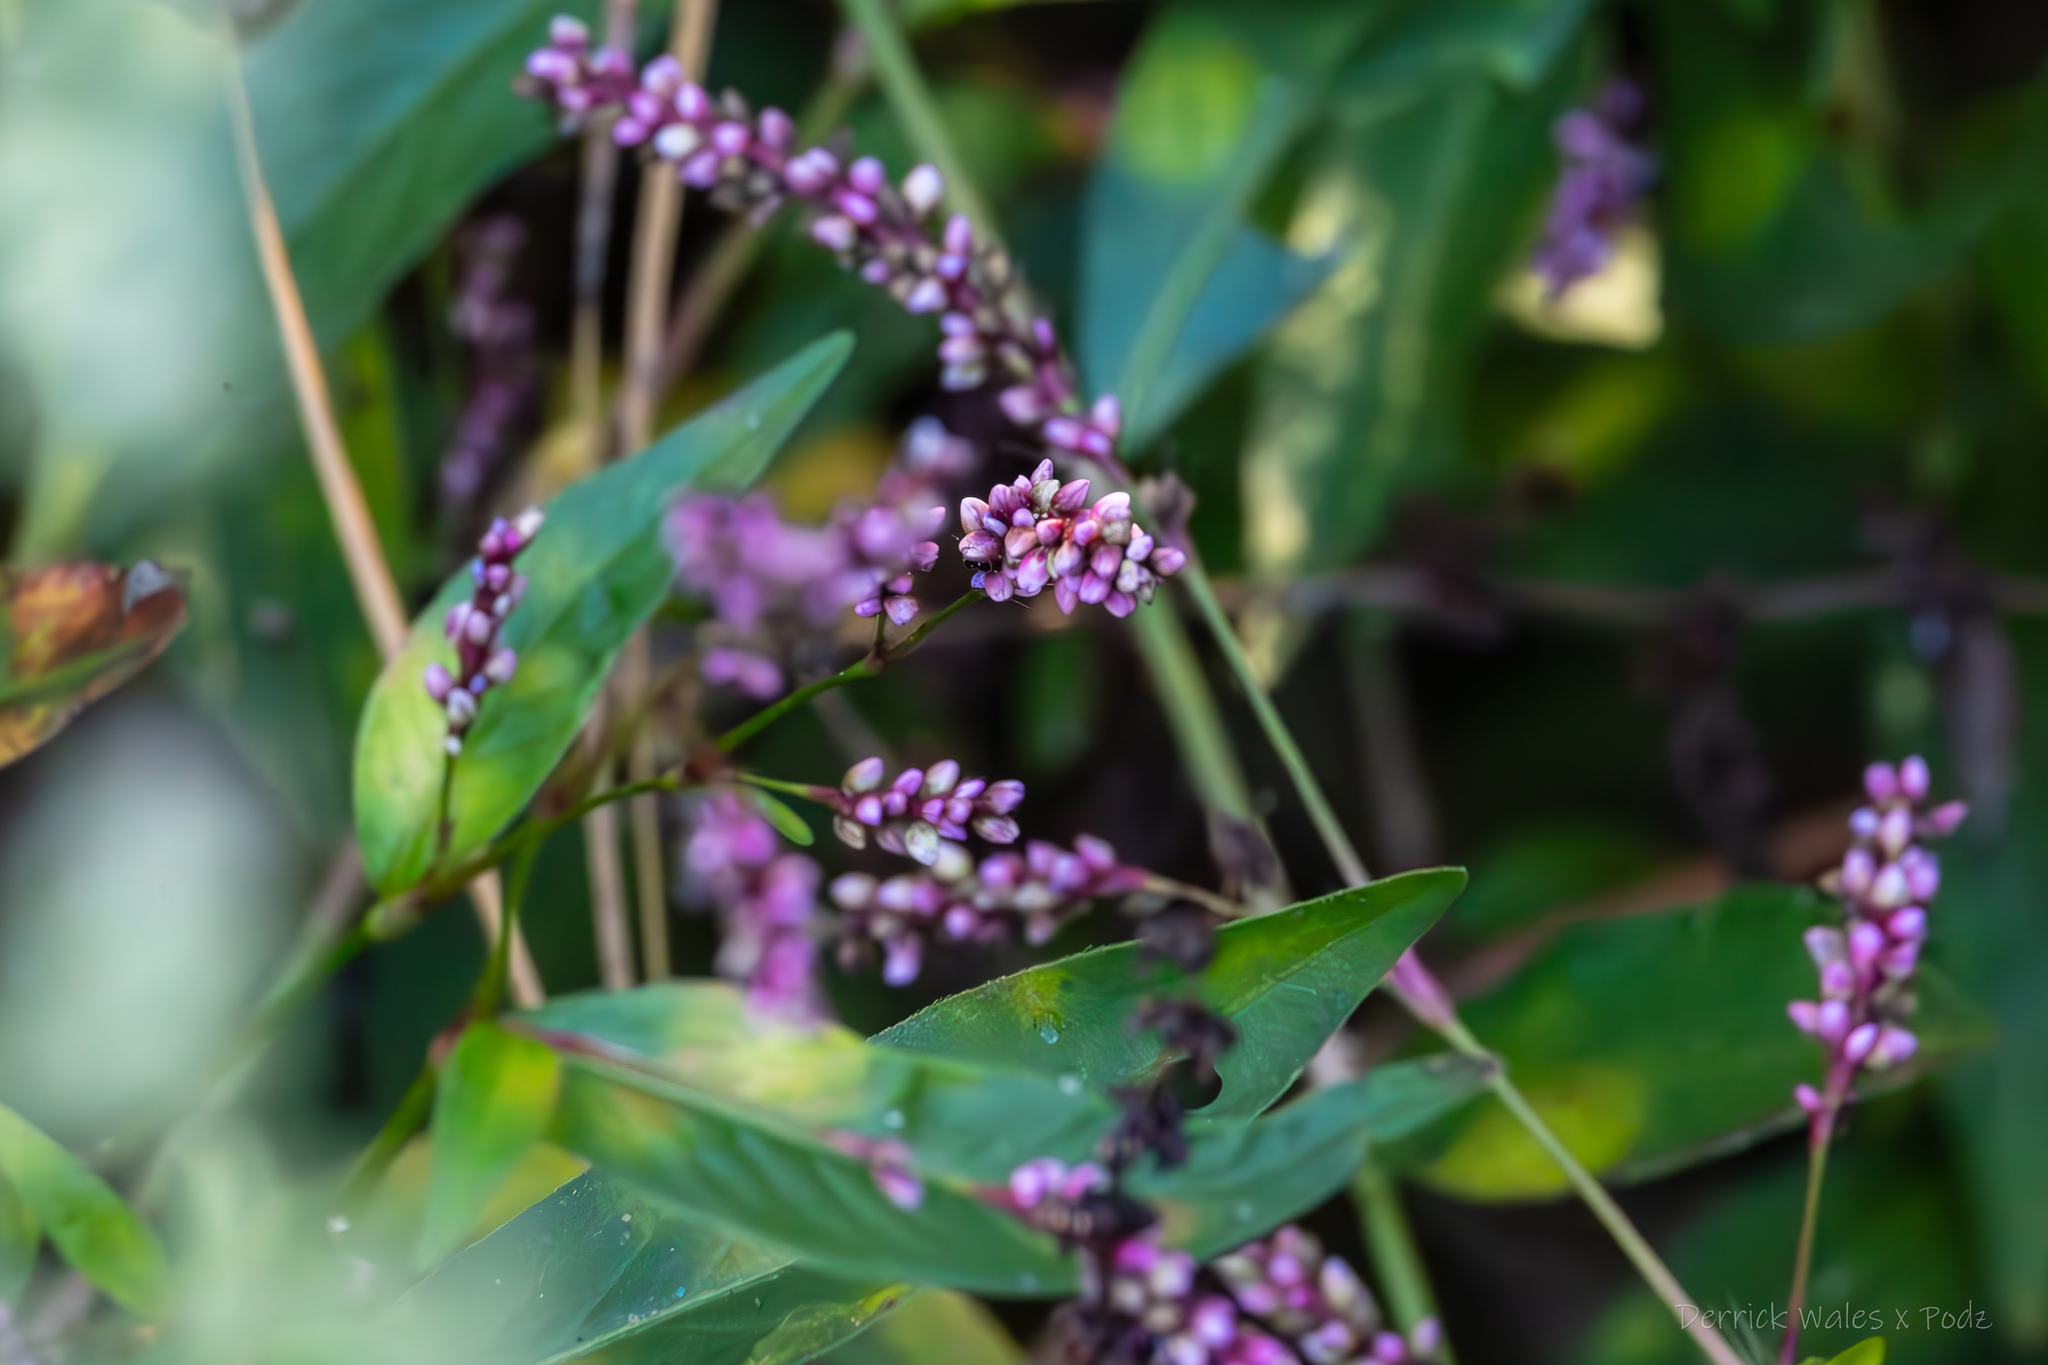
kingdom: Plantae
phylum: Tracheophyta
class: Magnoliopsida
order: Caryophyllales
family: Polygonaceae
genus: Persicaria
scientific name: Persicaria longiseta
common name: Bristly lady's-thumb
